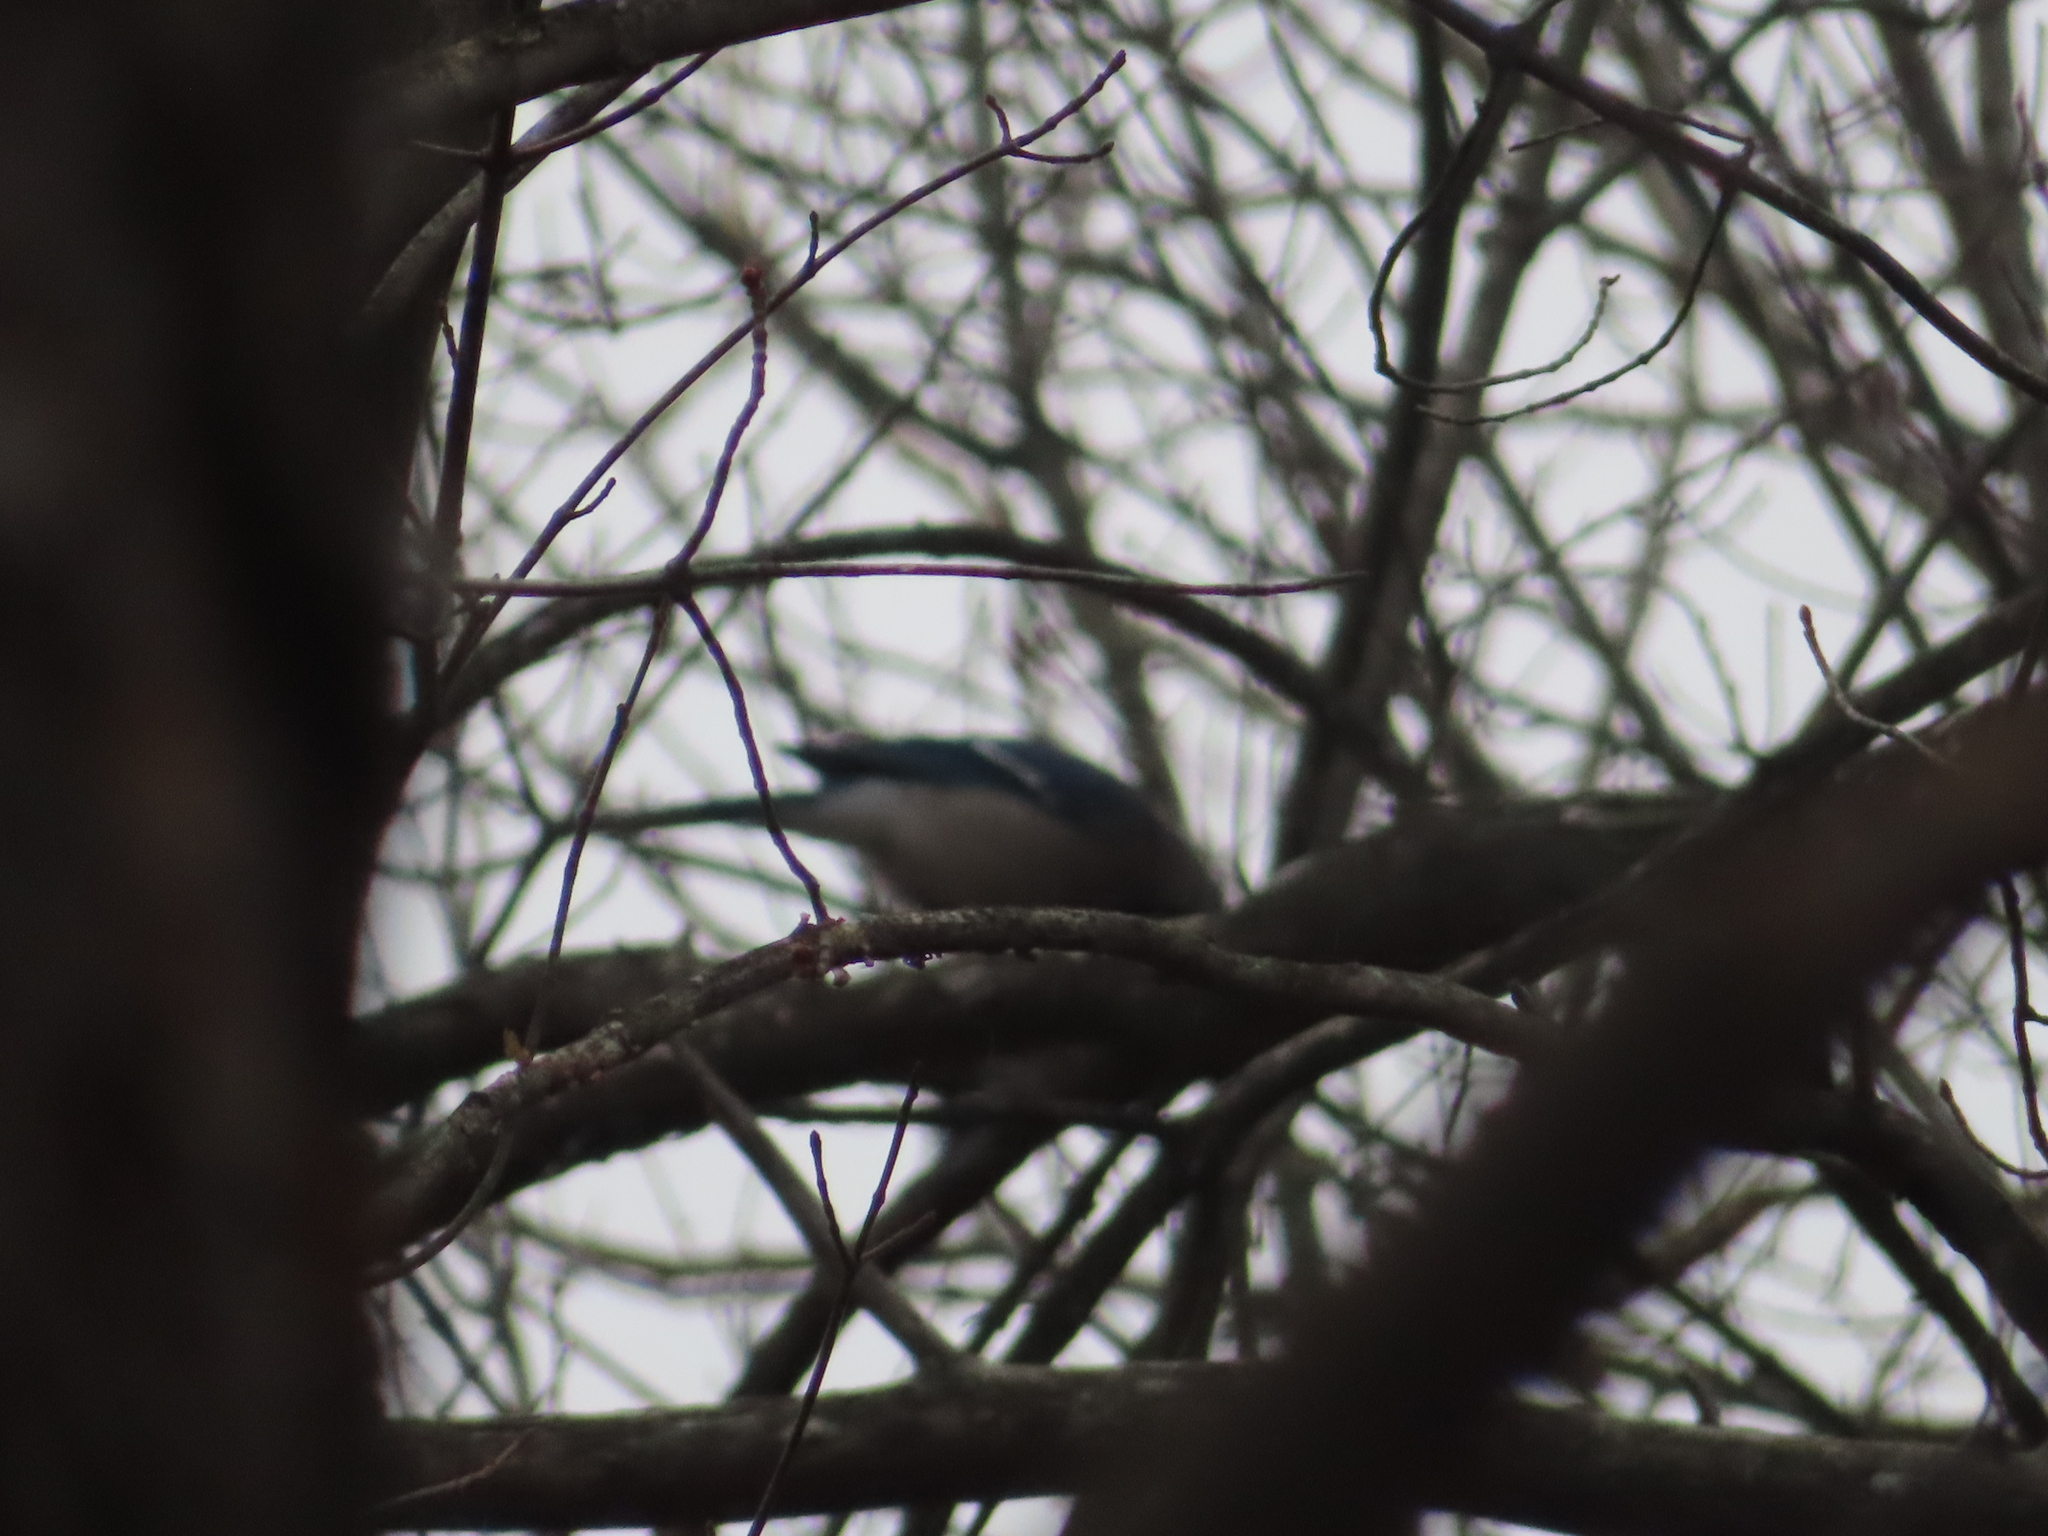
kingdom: Animalia
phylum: Chordata
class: Aves
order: Passeriformes
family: Corvidae
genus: Cyanocitta
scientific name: Cyanocitta cristata
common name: Blue jay
